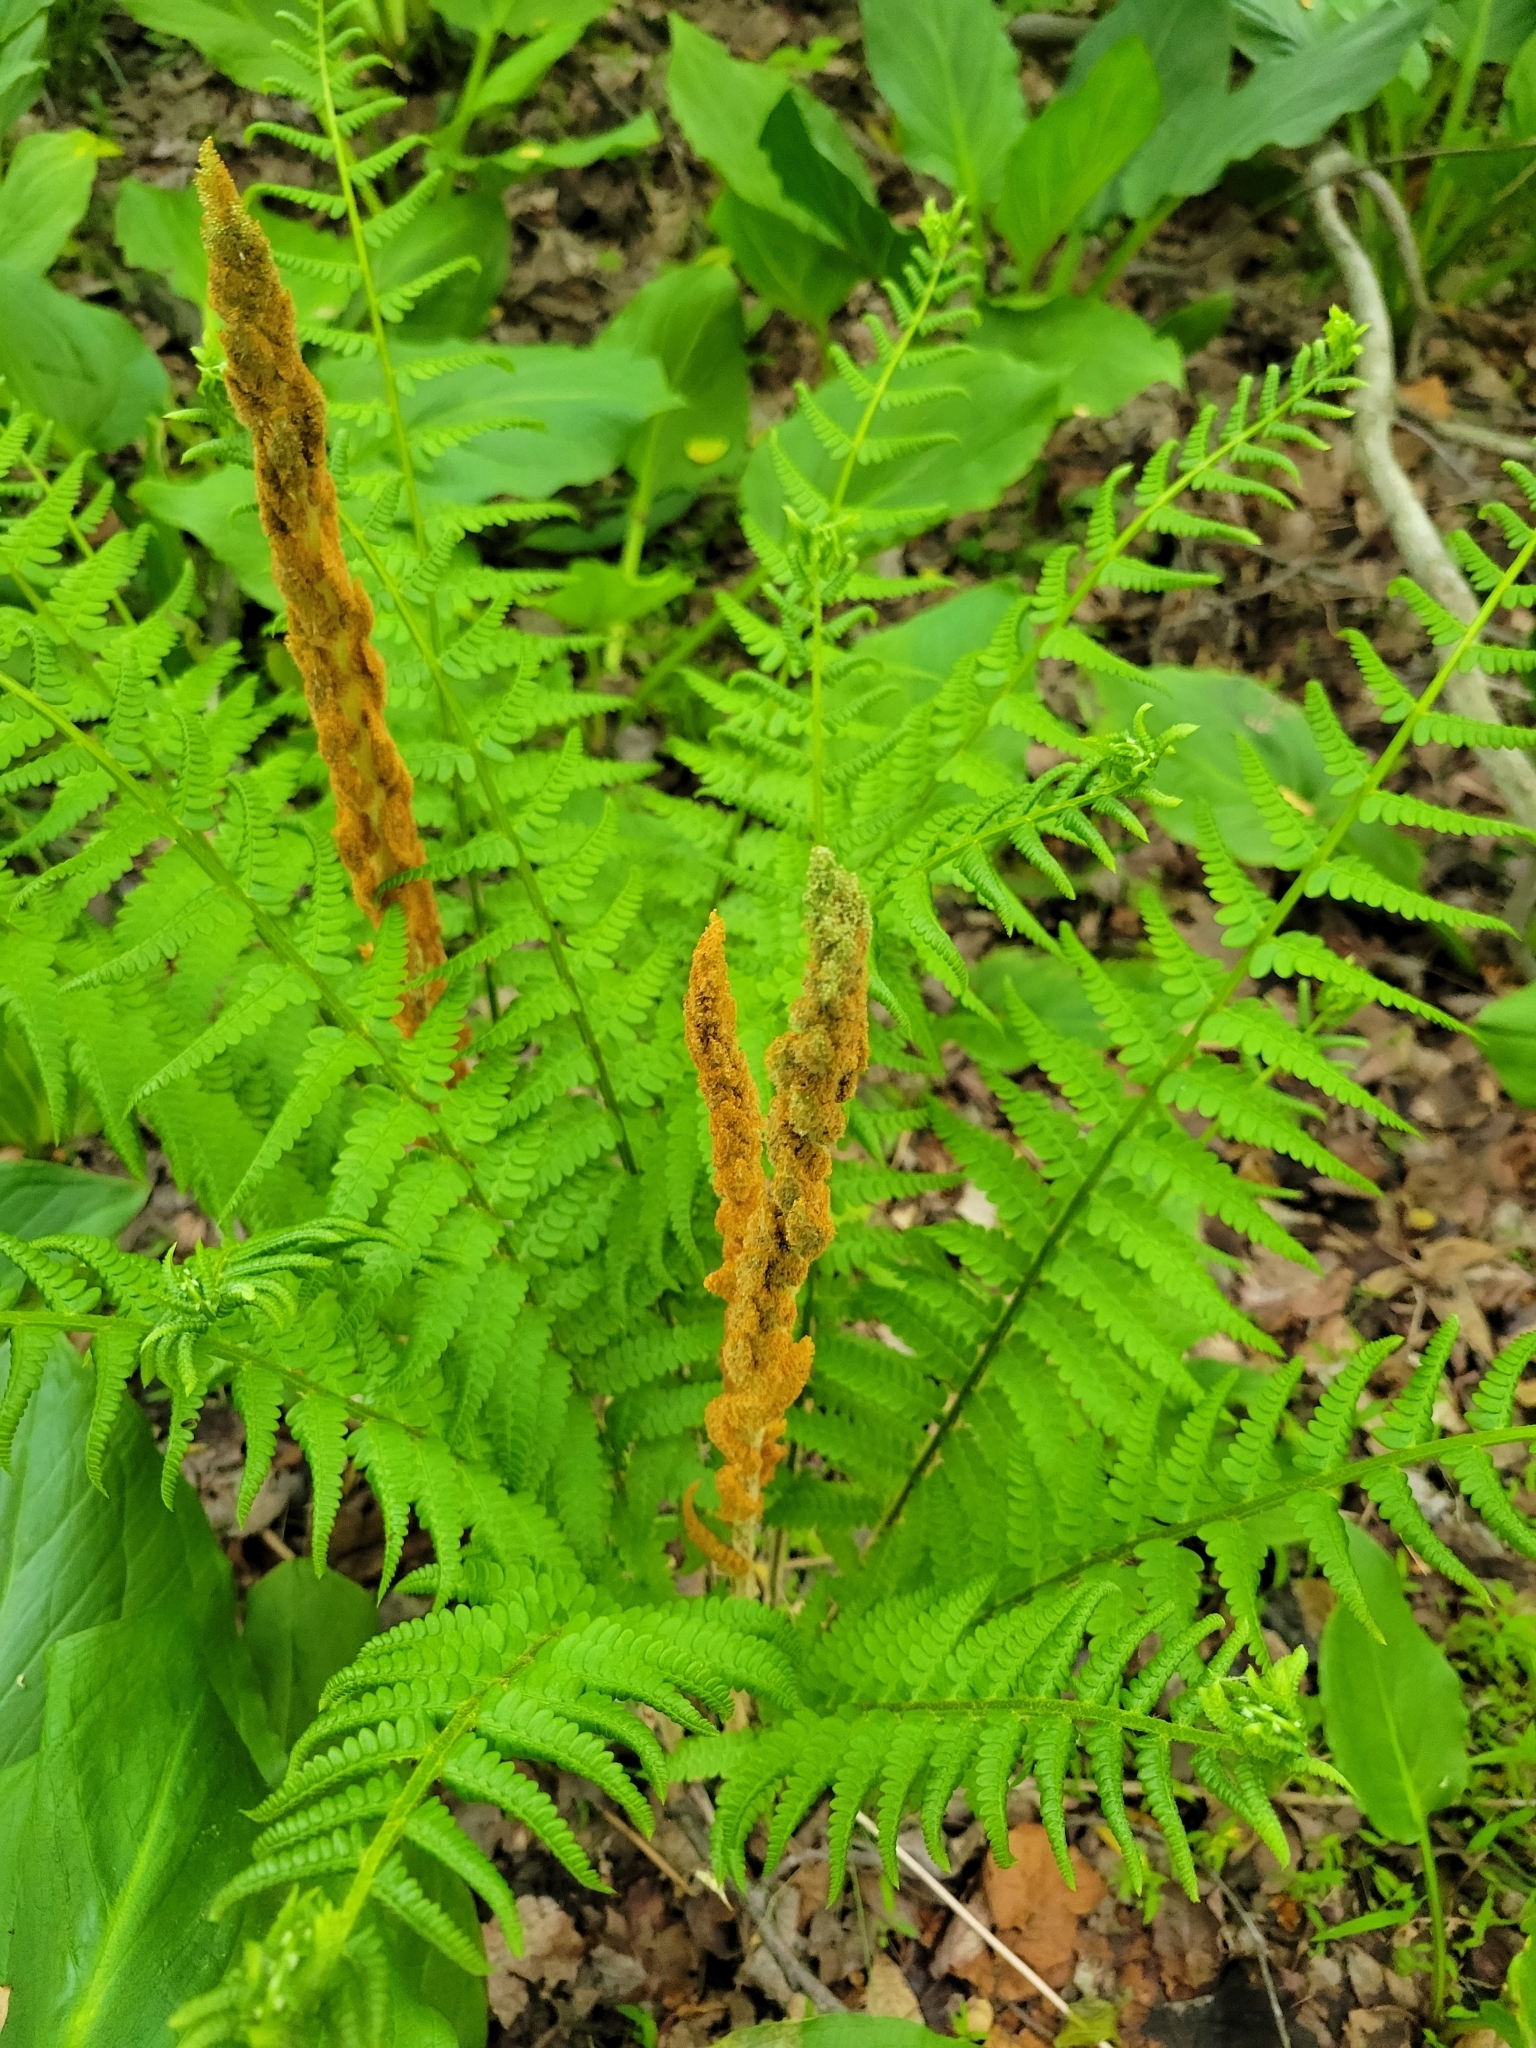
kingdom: Plantae
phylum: Tracheophyta
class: Polypodiopsida
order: Osmundales
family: Osmundaceae
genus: Osmundastrum
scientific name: Osmundastrum cinnamomeum
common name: Cinnamon fern
